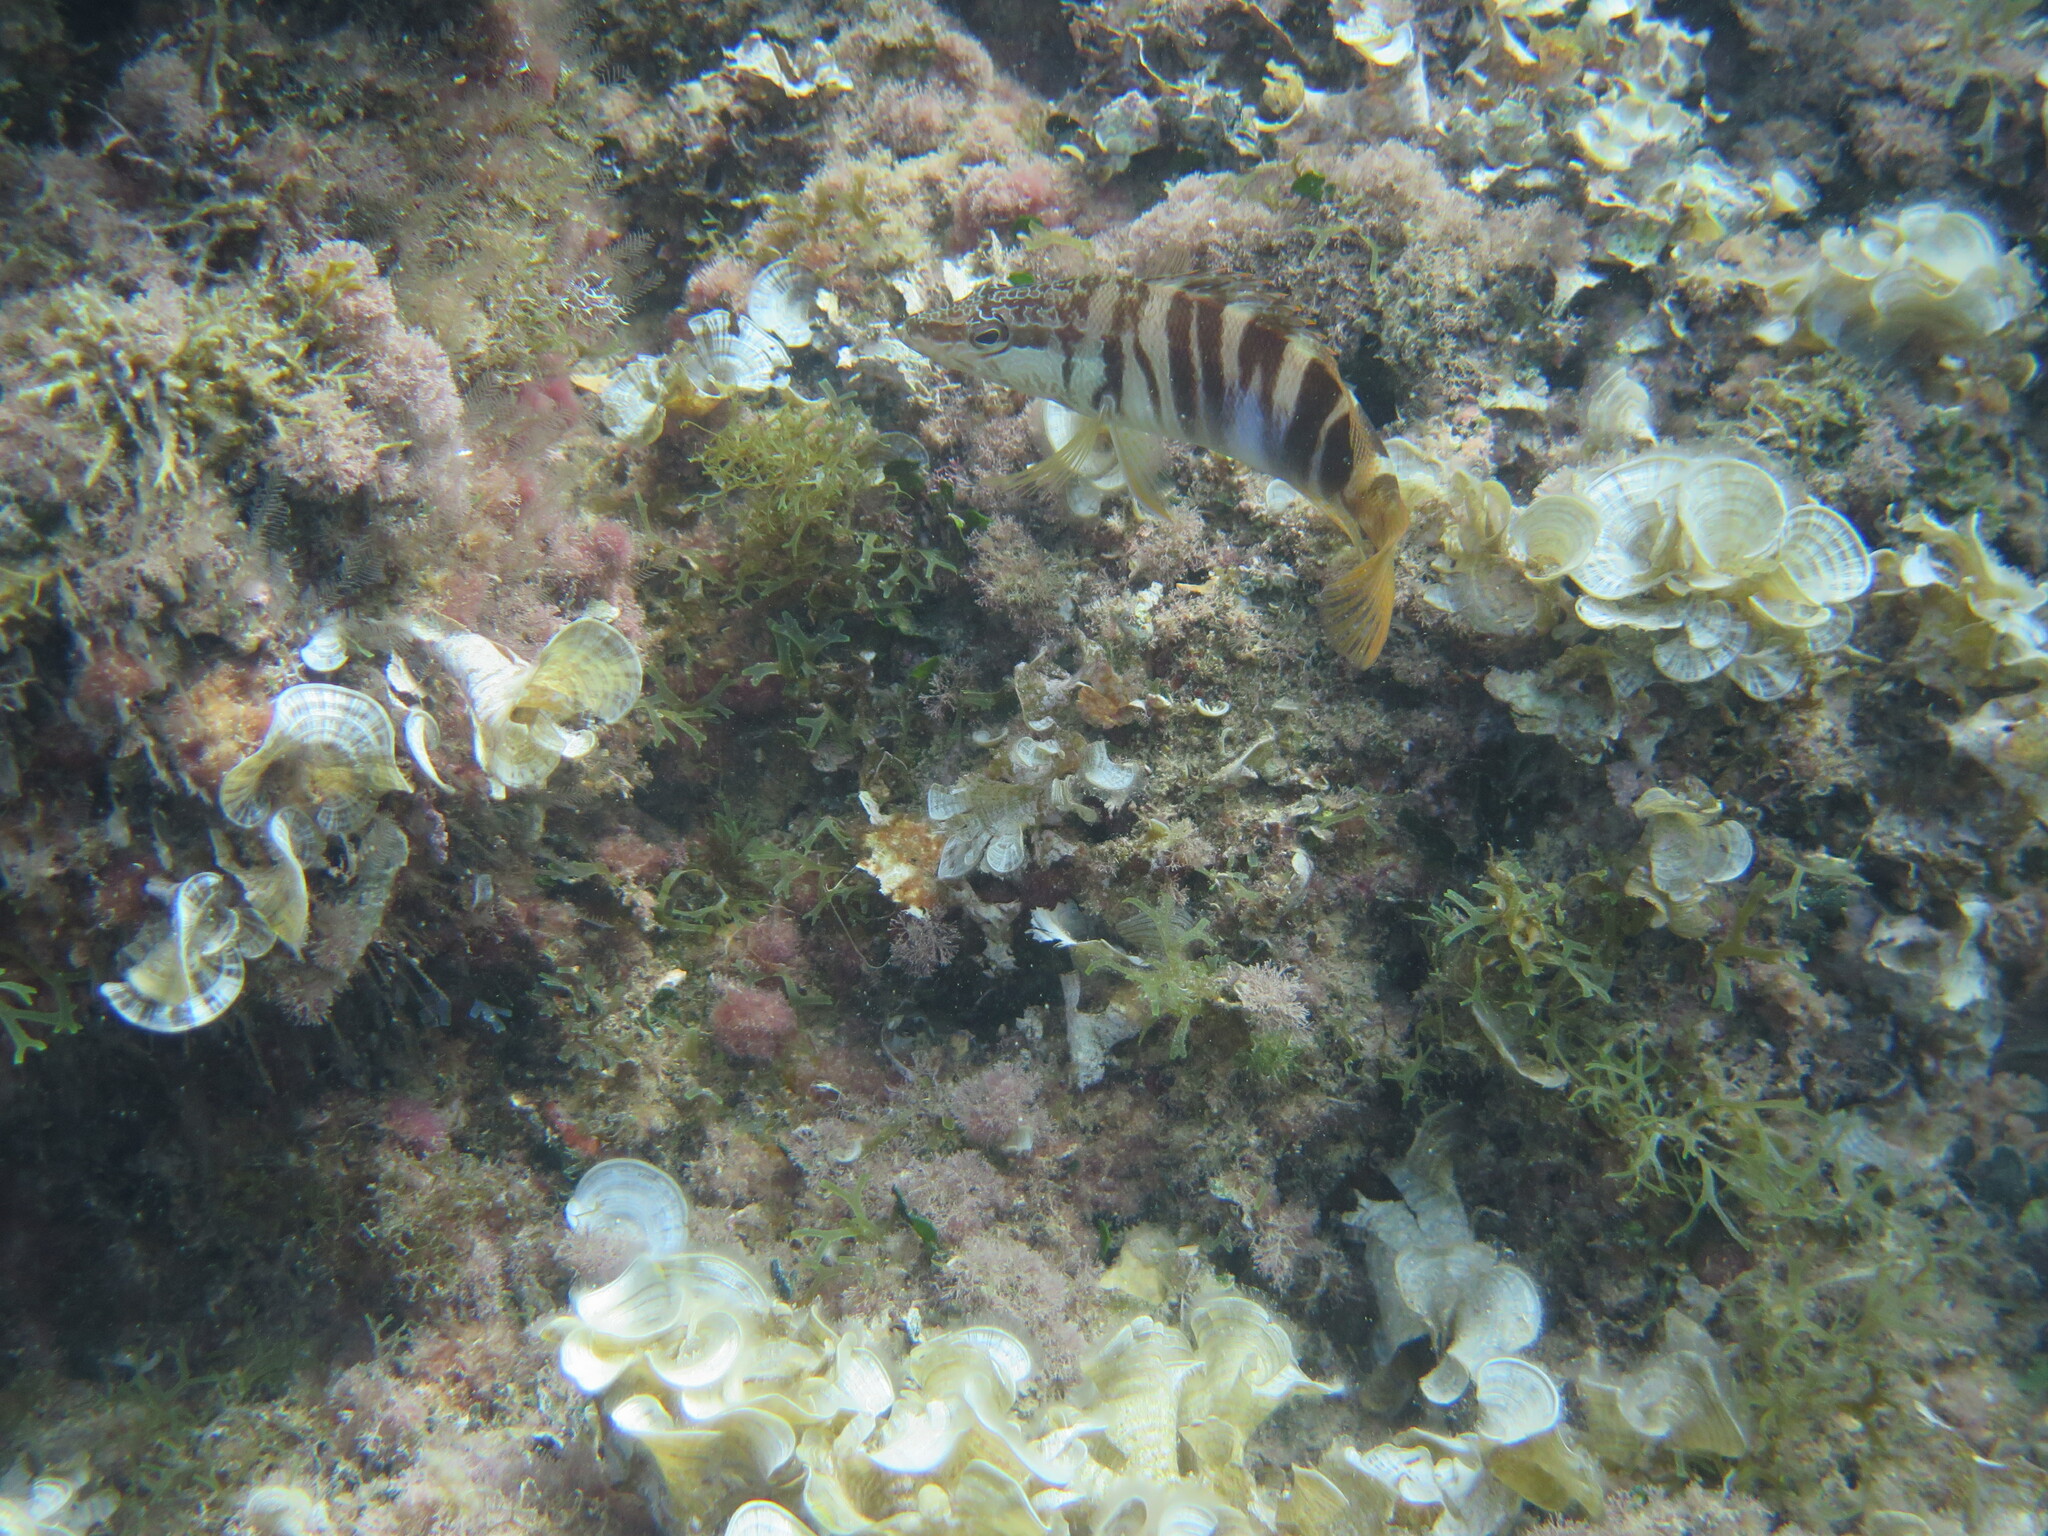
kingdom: Animalia
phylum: Chordata
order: Perciformes
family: Serranidae
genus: Serranus
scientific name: Serranus scriba
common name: Painted comber
